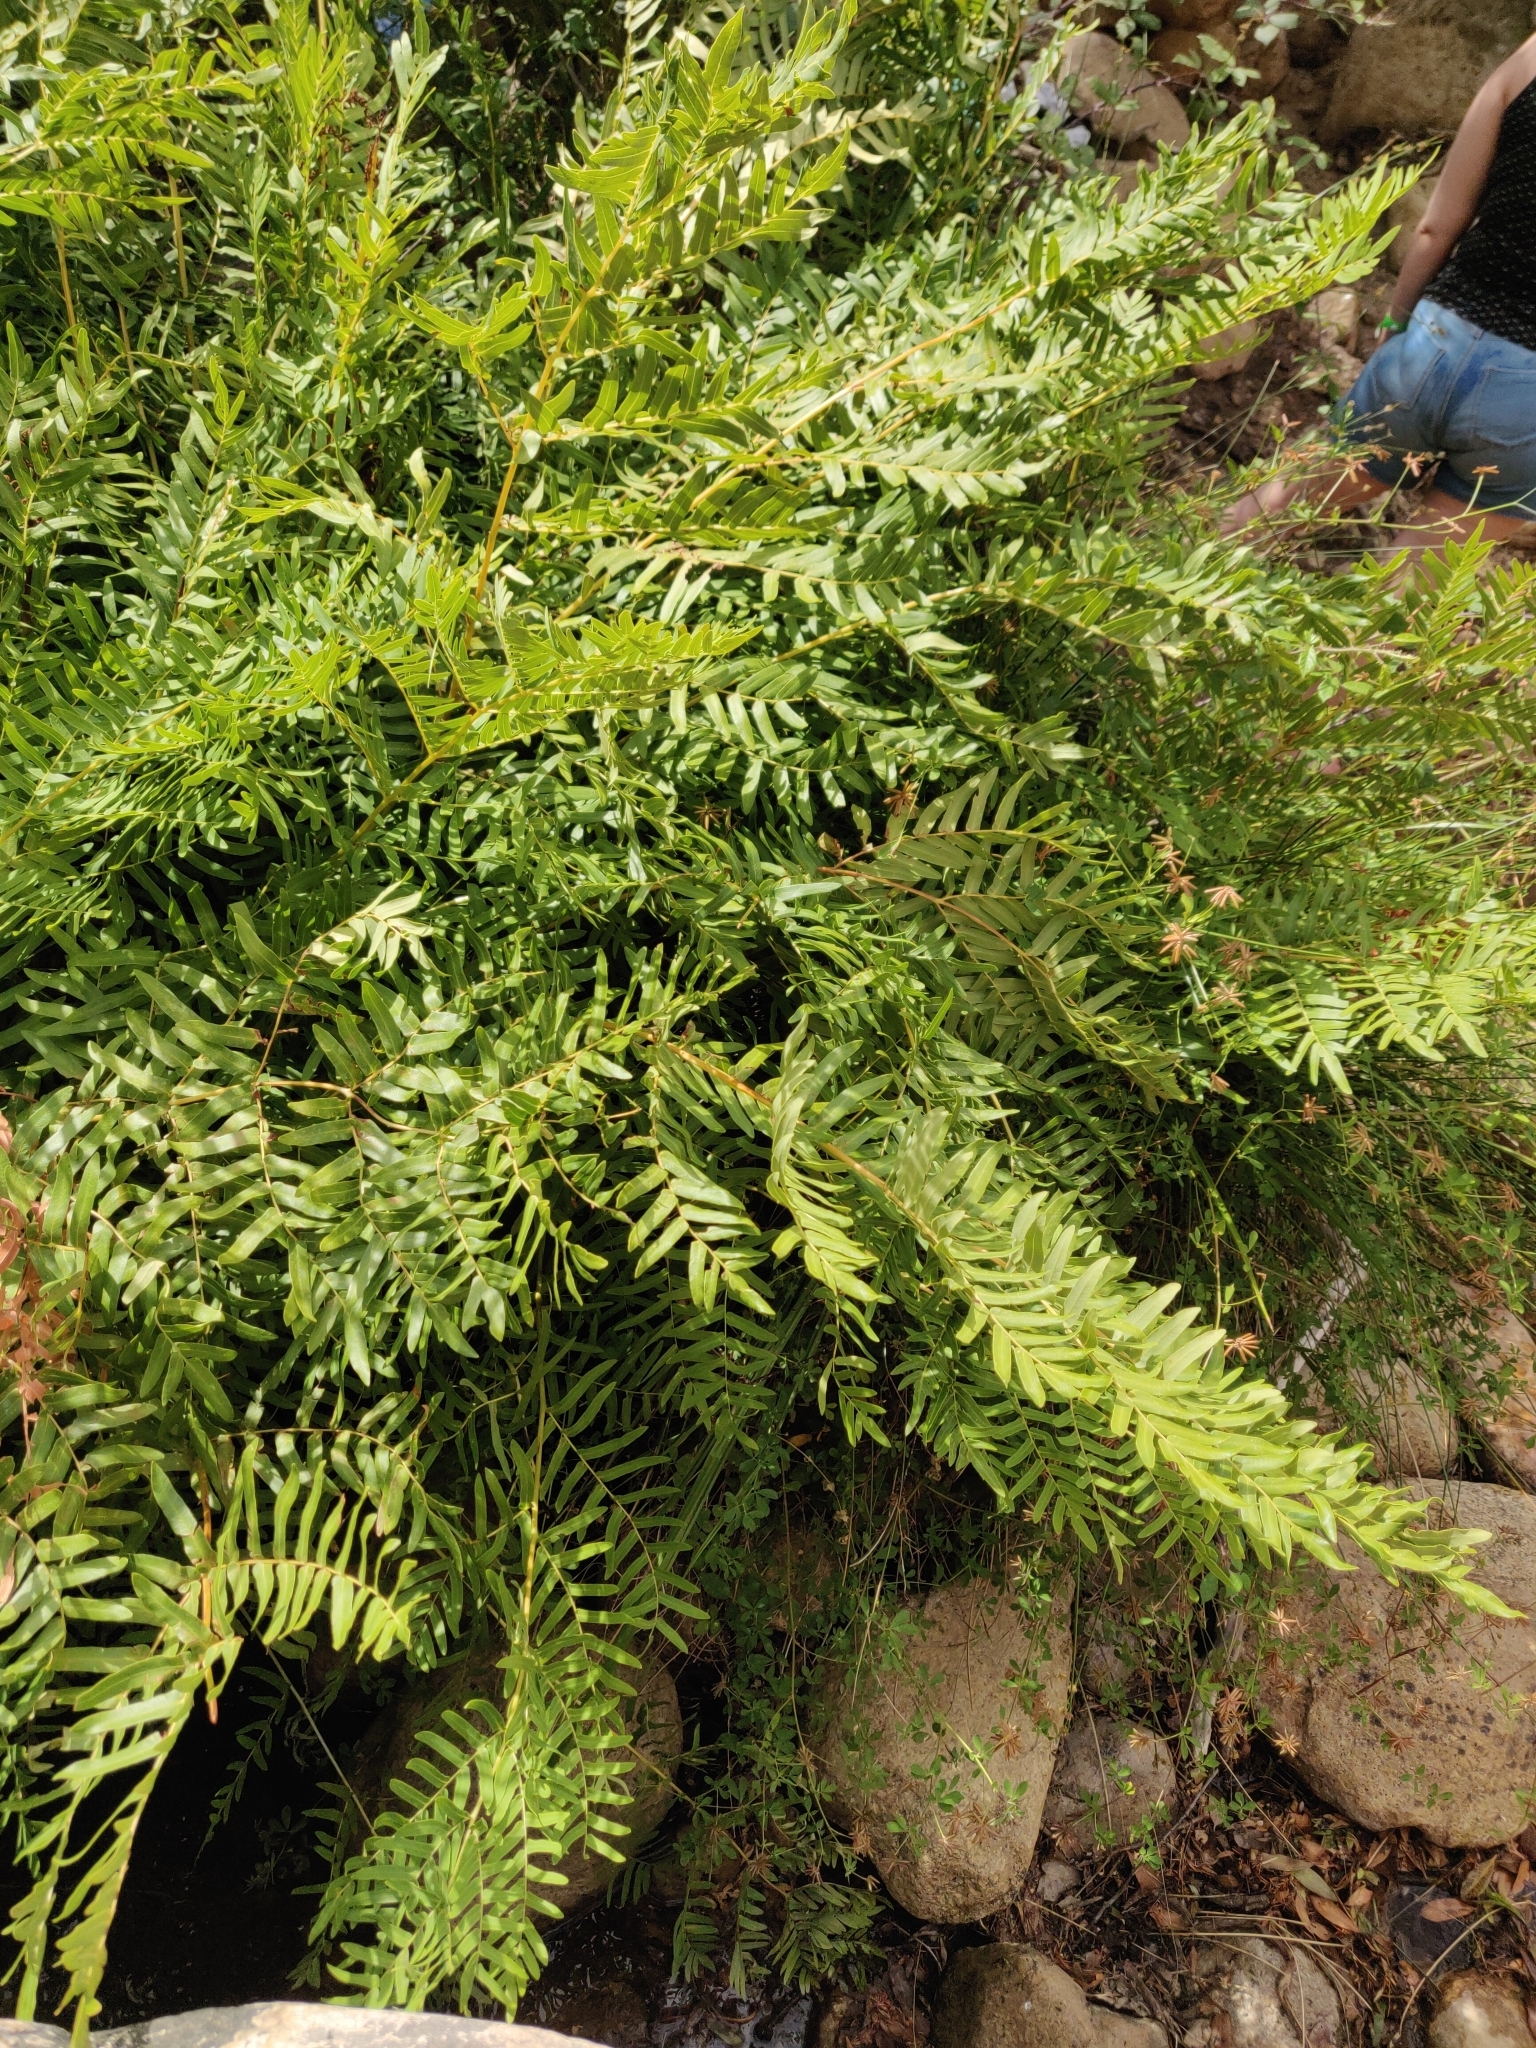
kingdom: Plantae
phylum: Tracheophyta
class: Polypodiopsida
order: Osmundales
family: Osmundaceae
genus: Osmunda
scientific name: Osmunda regalis
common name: Royal fern
